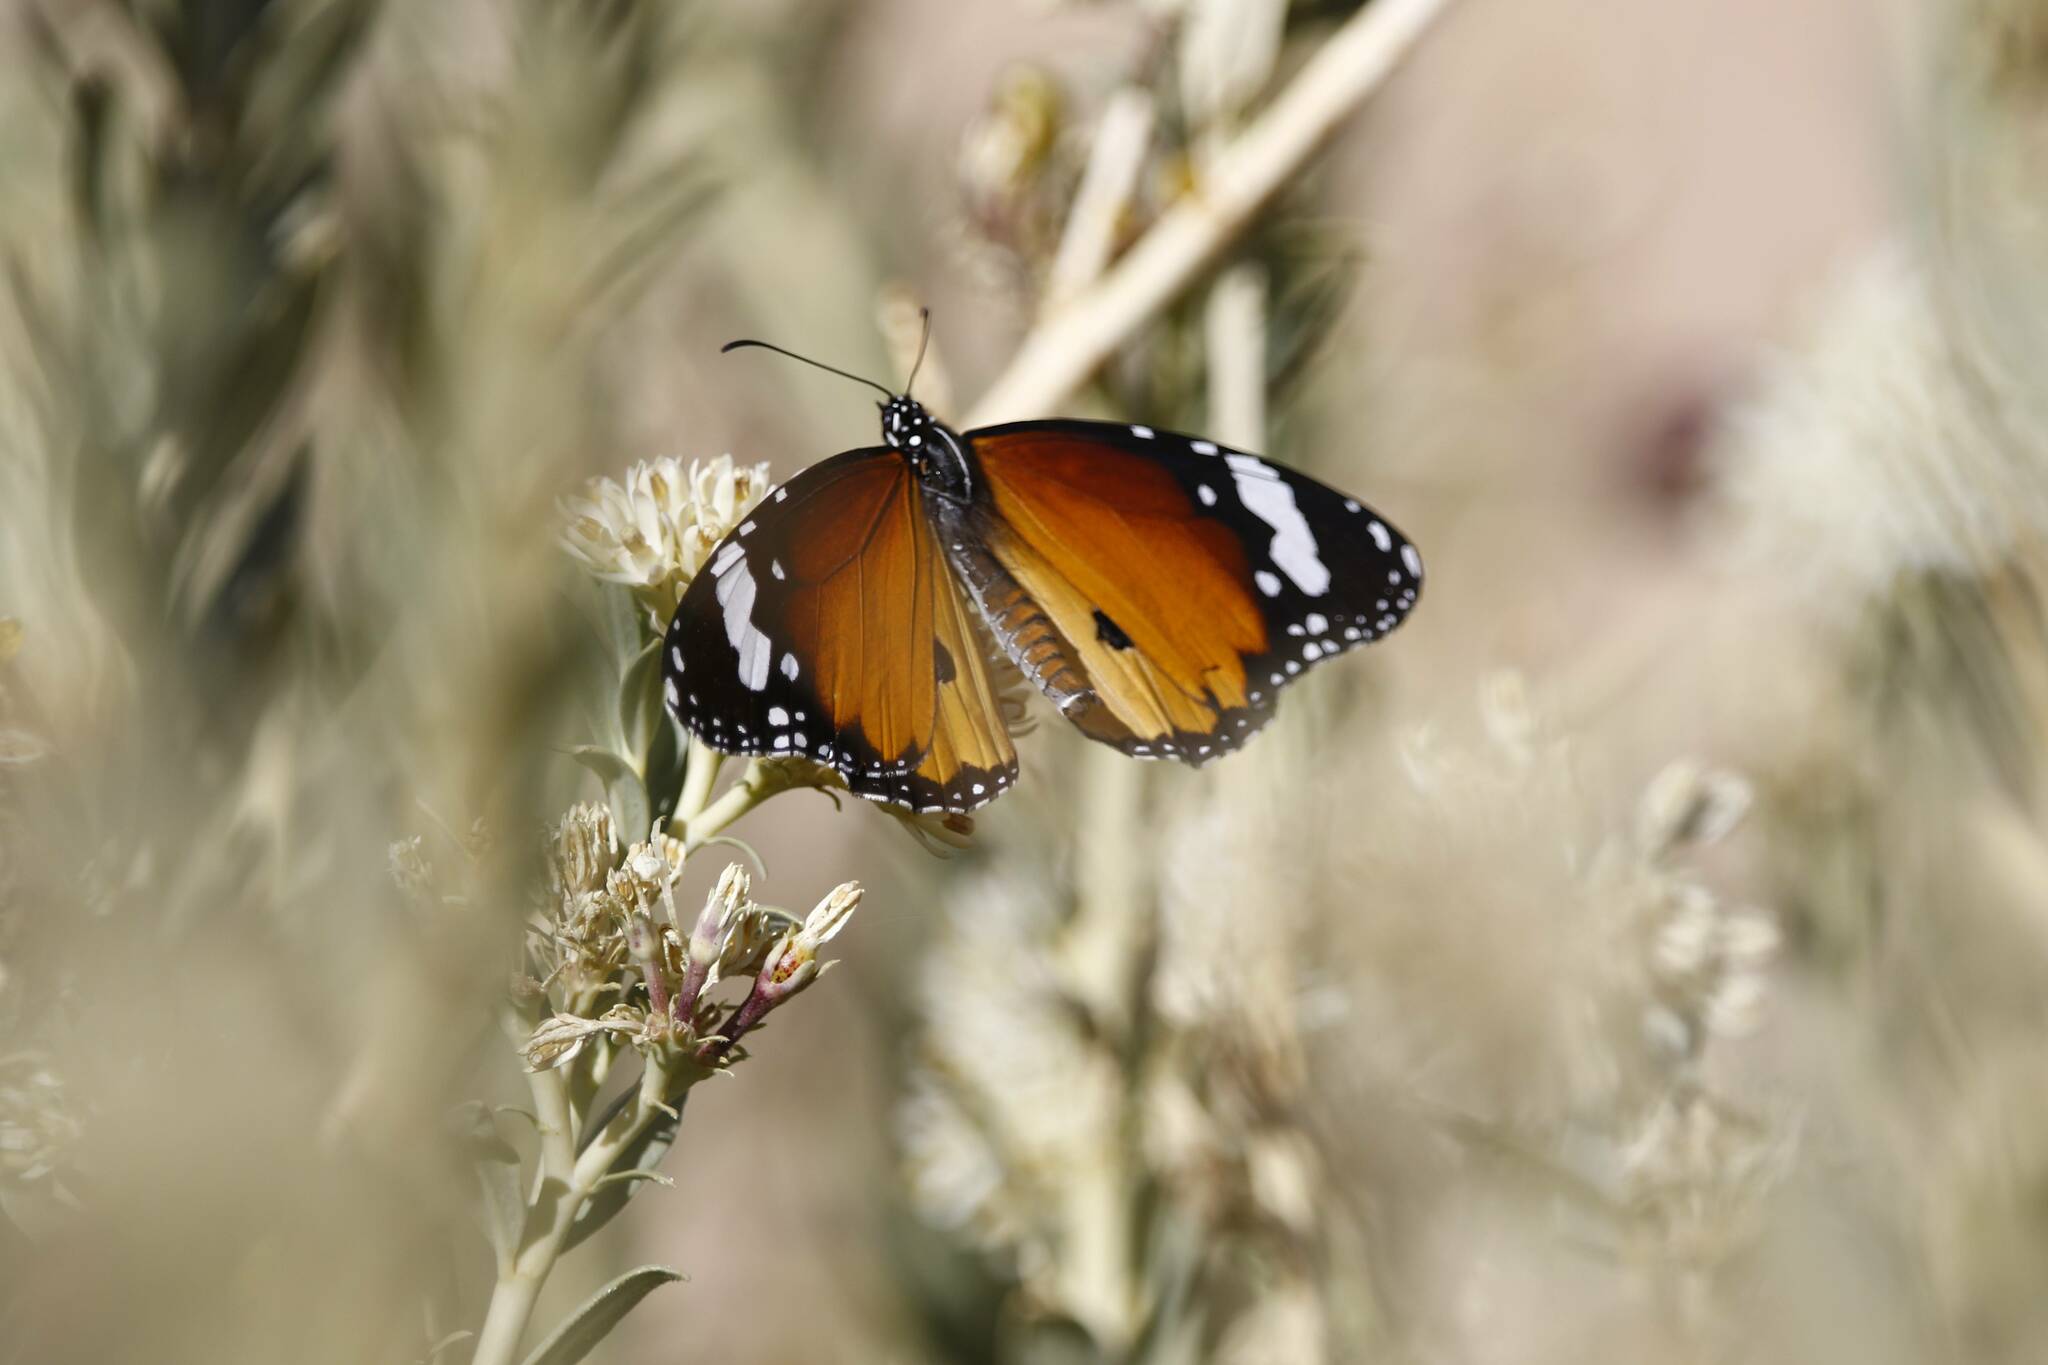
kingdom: Animalia
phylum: Arthropoda
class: Insecta
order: Lepidoptera
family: Nymphalidae
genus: Danaus
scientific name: Danaus chrysippus
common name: Plain tiger
